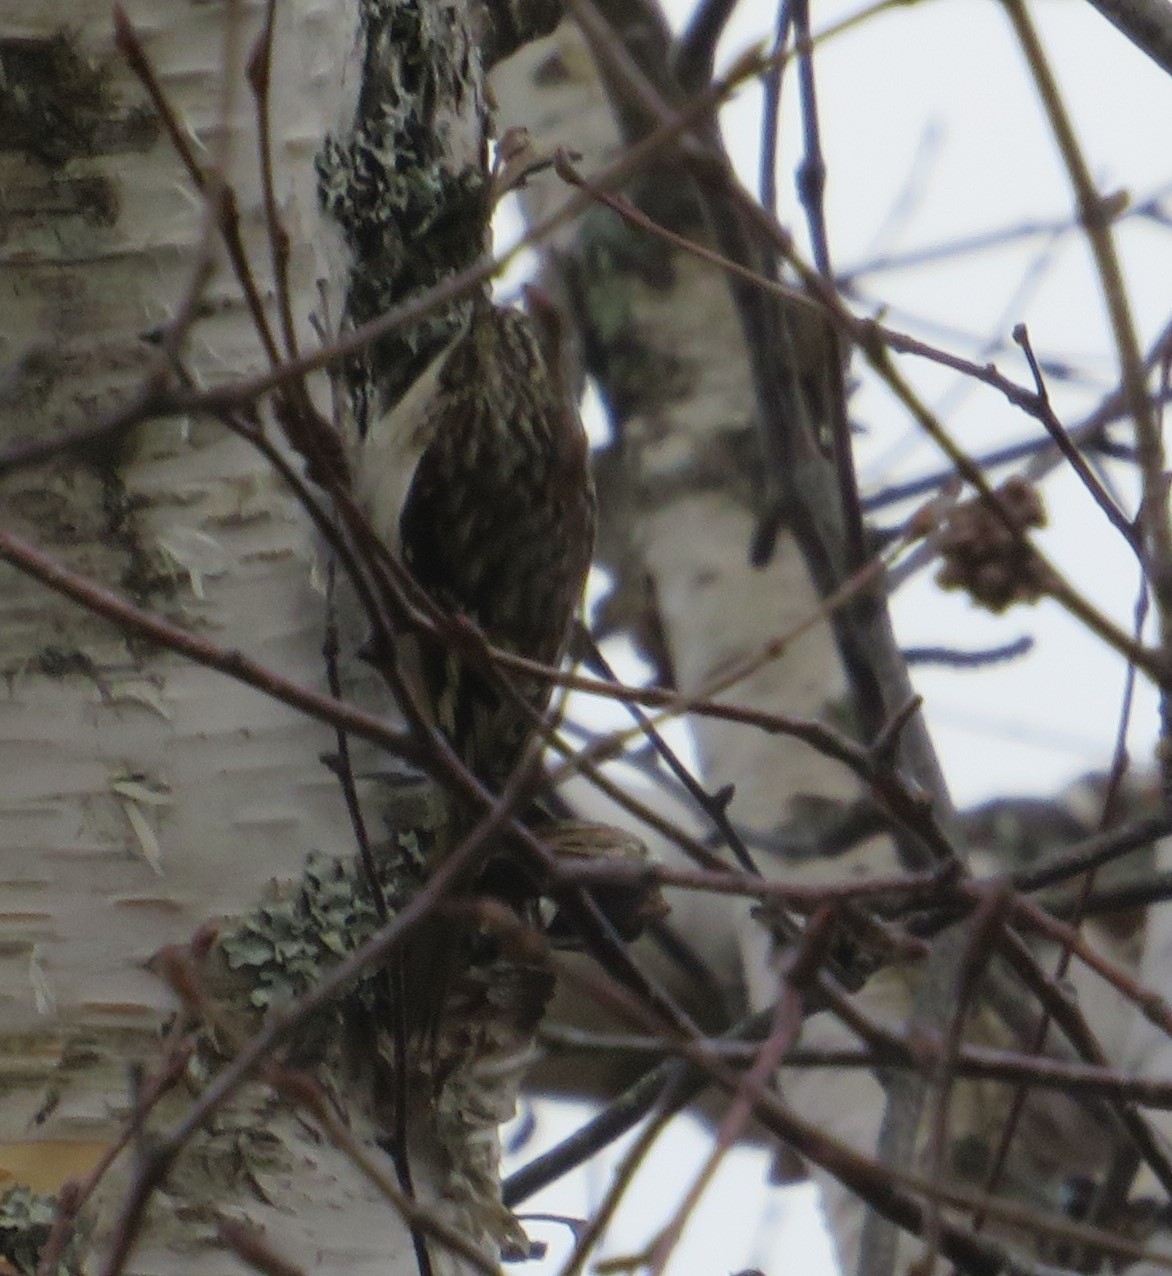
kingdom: Animalia
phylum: Chordata
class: Aves
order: Passeriformes
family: Certhiidae
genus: Certhia
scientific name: Certhia americana
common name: Brown creeper
